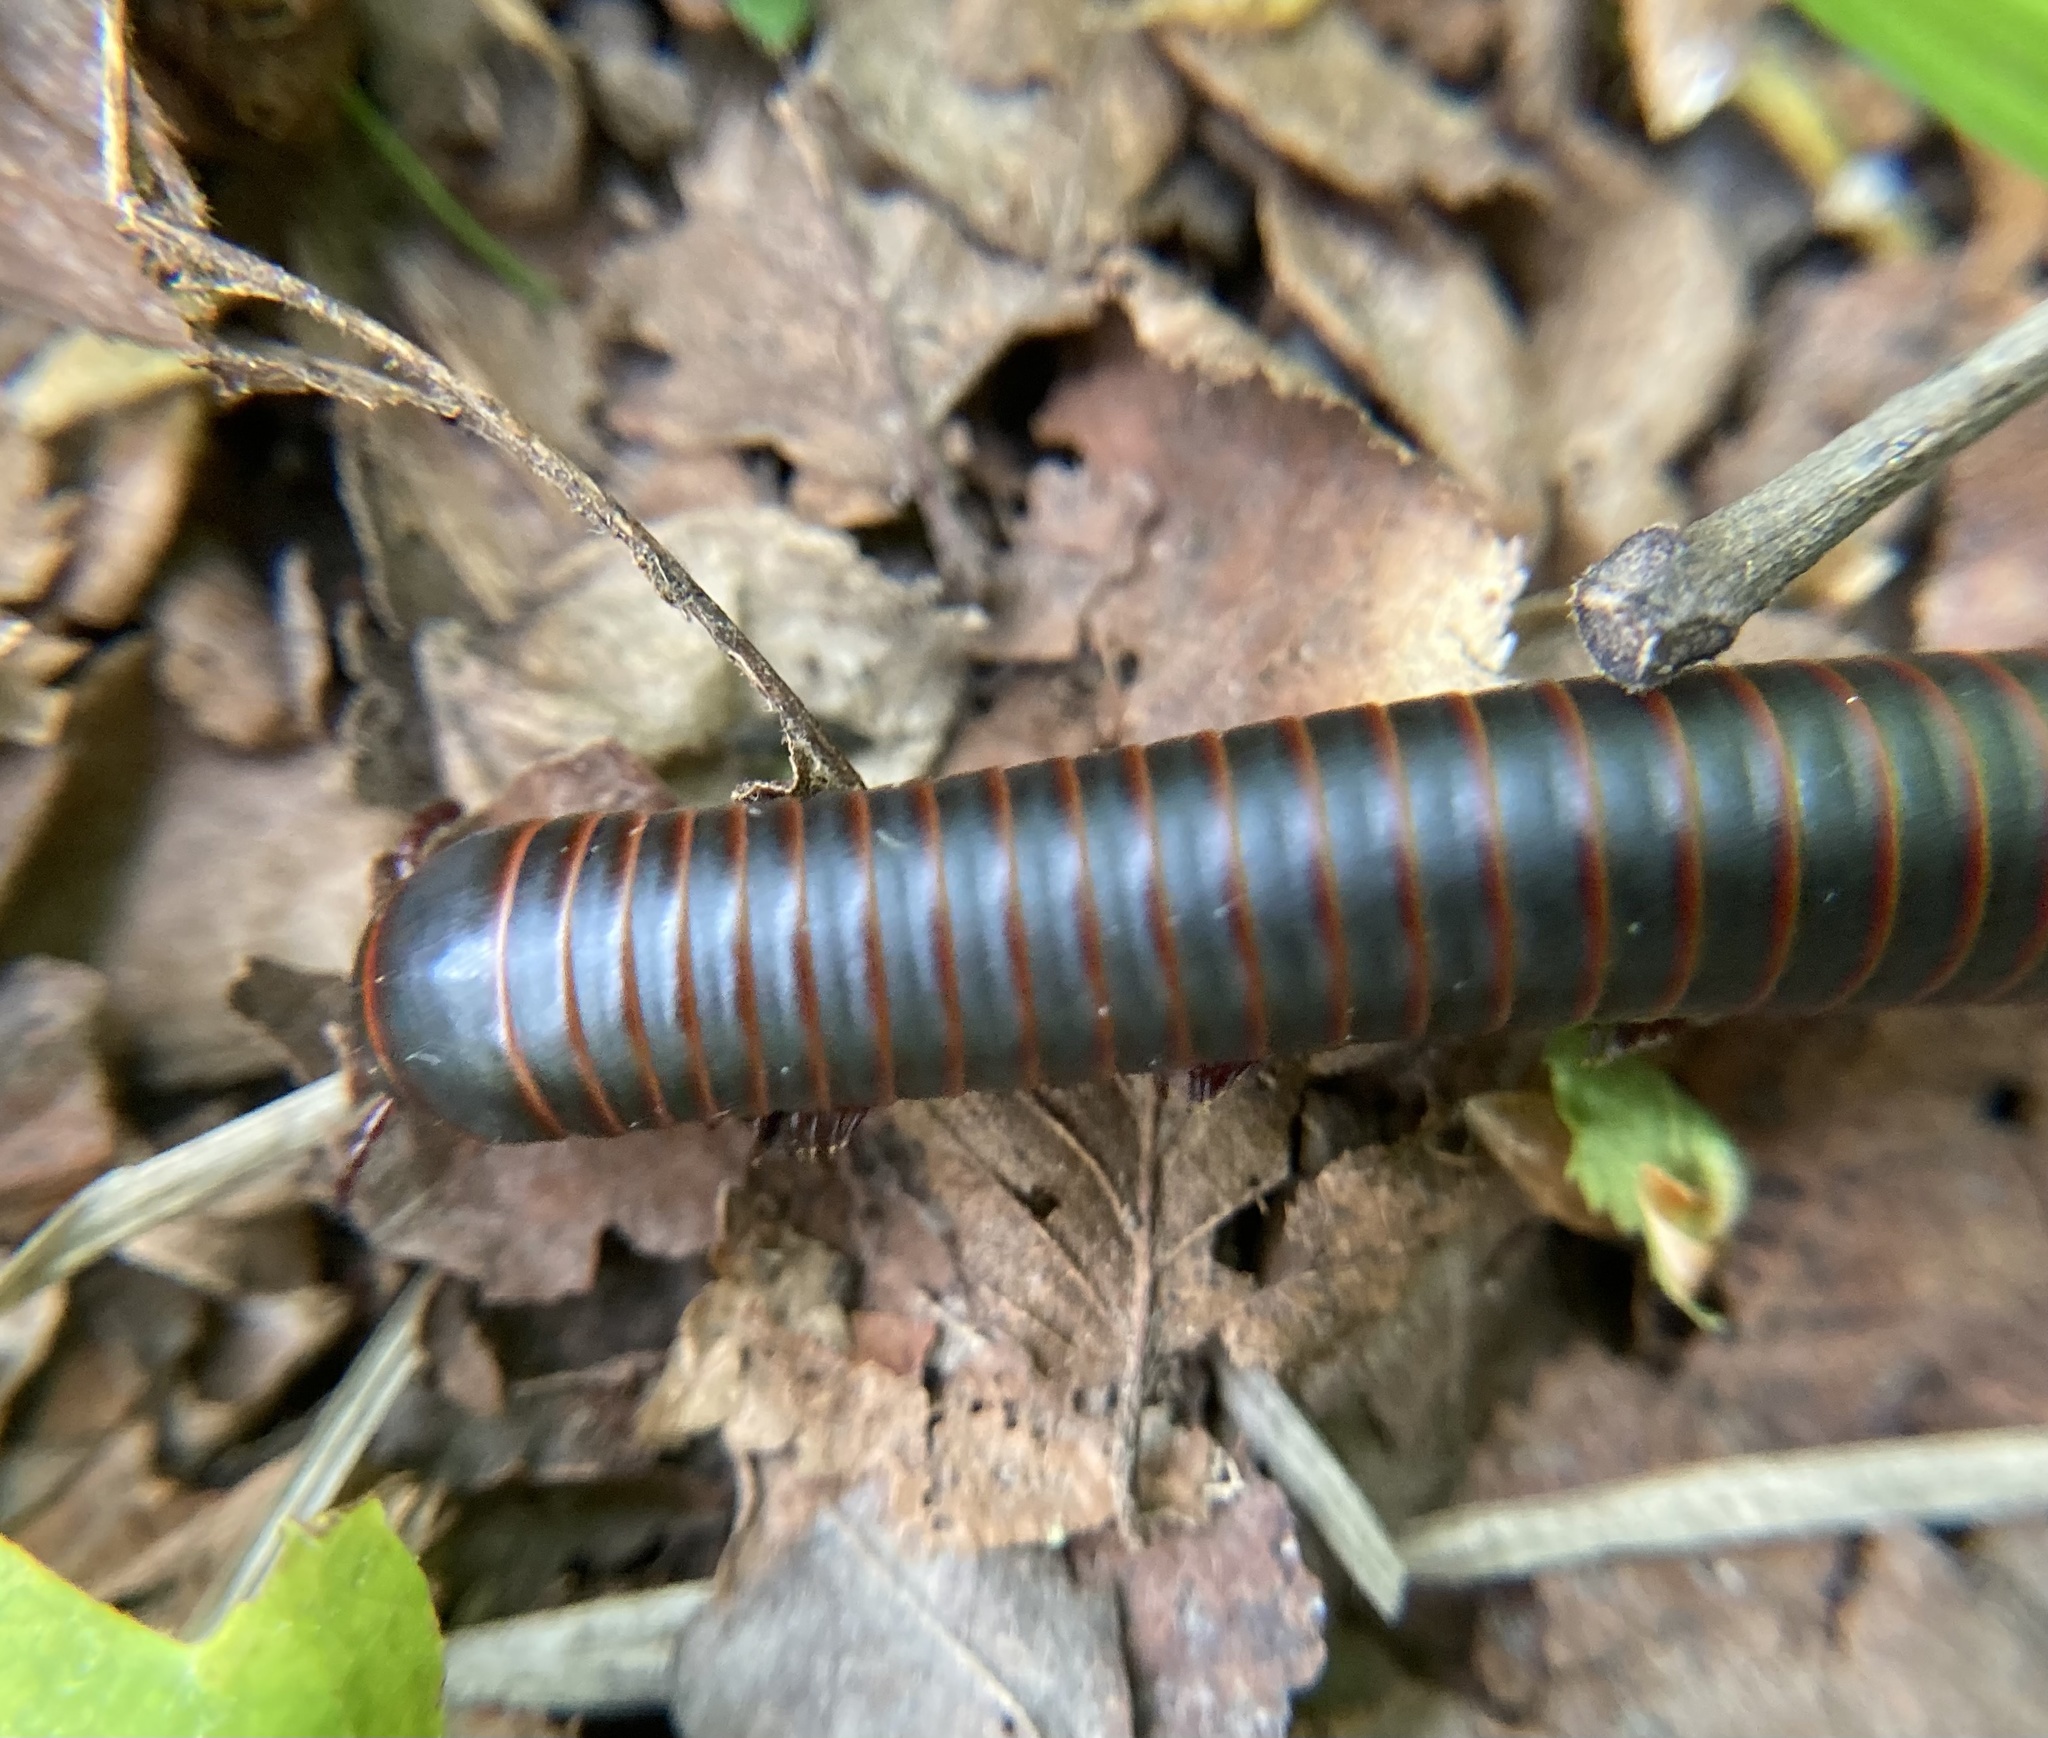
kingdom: Animalia
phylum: Arthropoda
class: Diplopoda
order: Spirobolida
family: Spirobolidae
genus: Narceus
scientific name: Narceus
